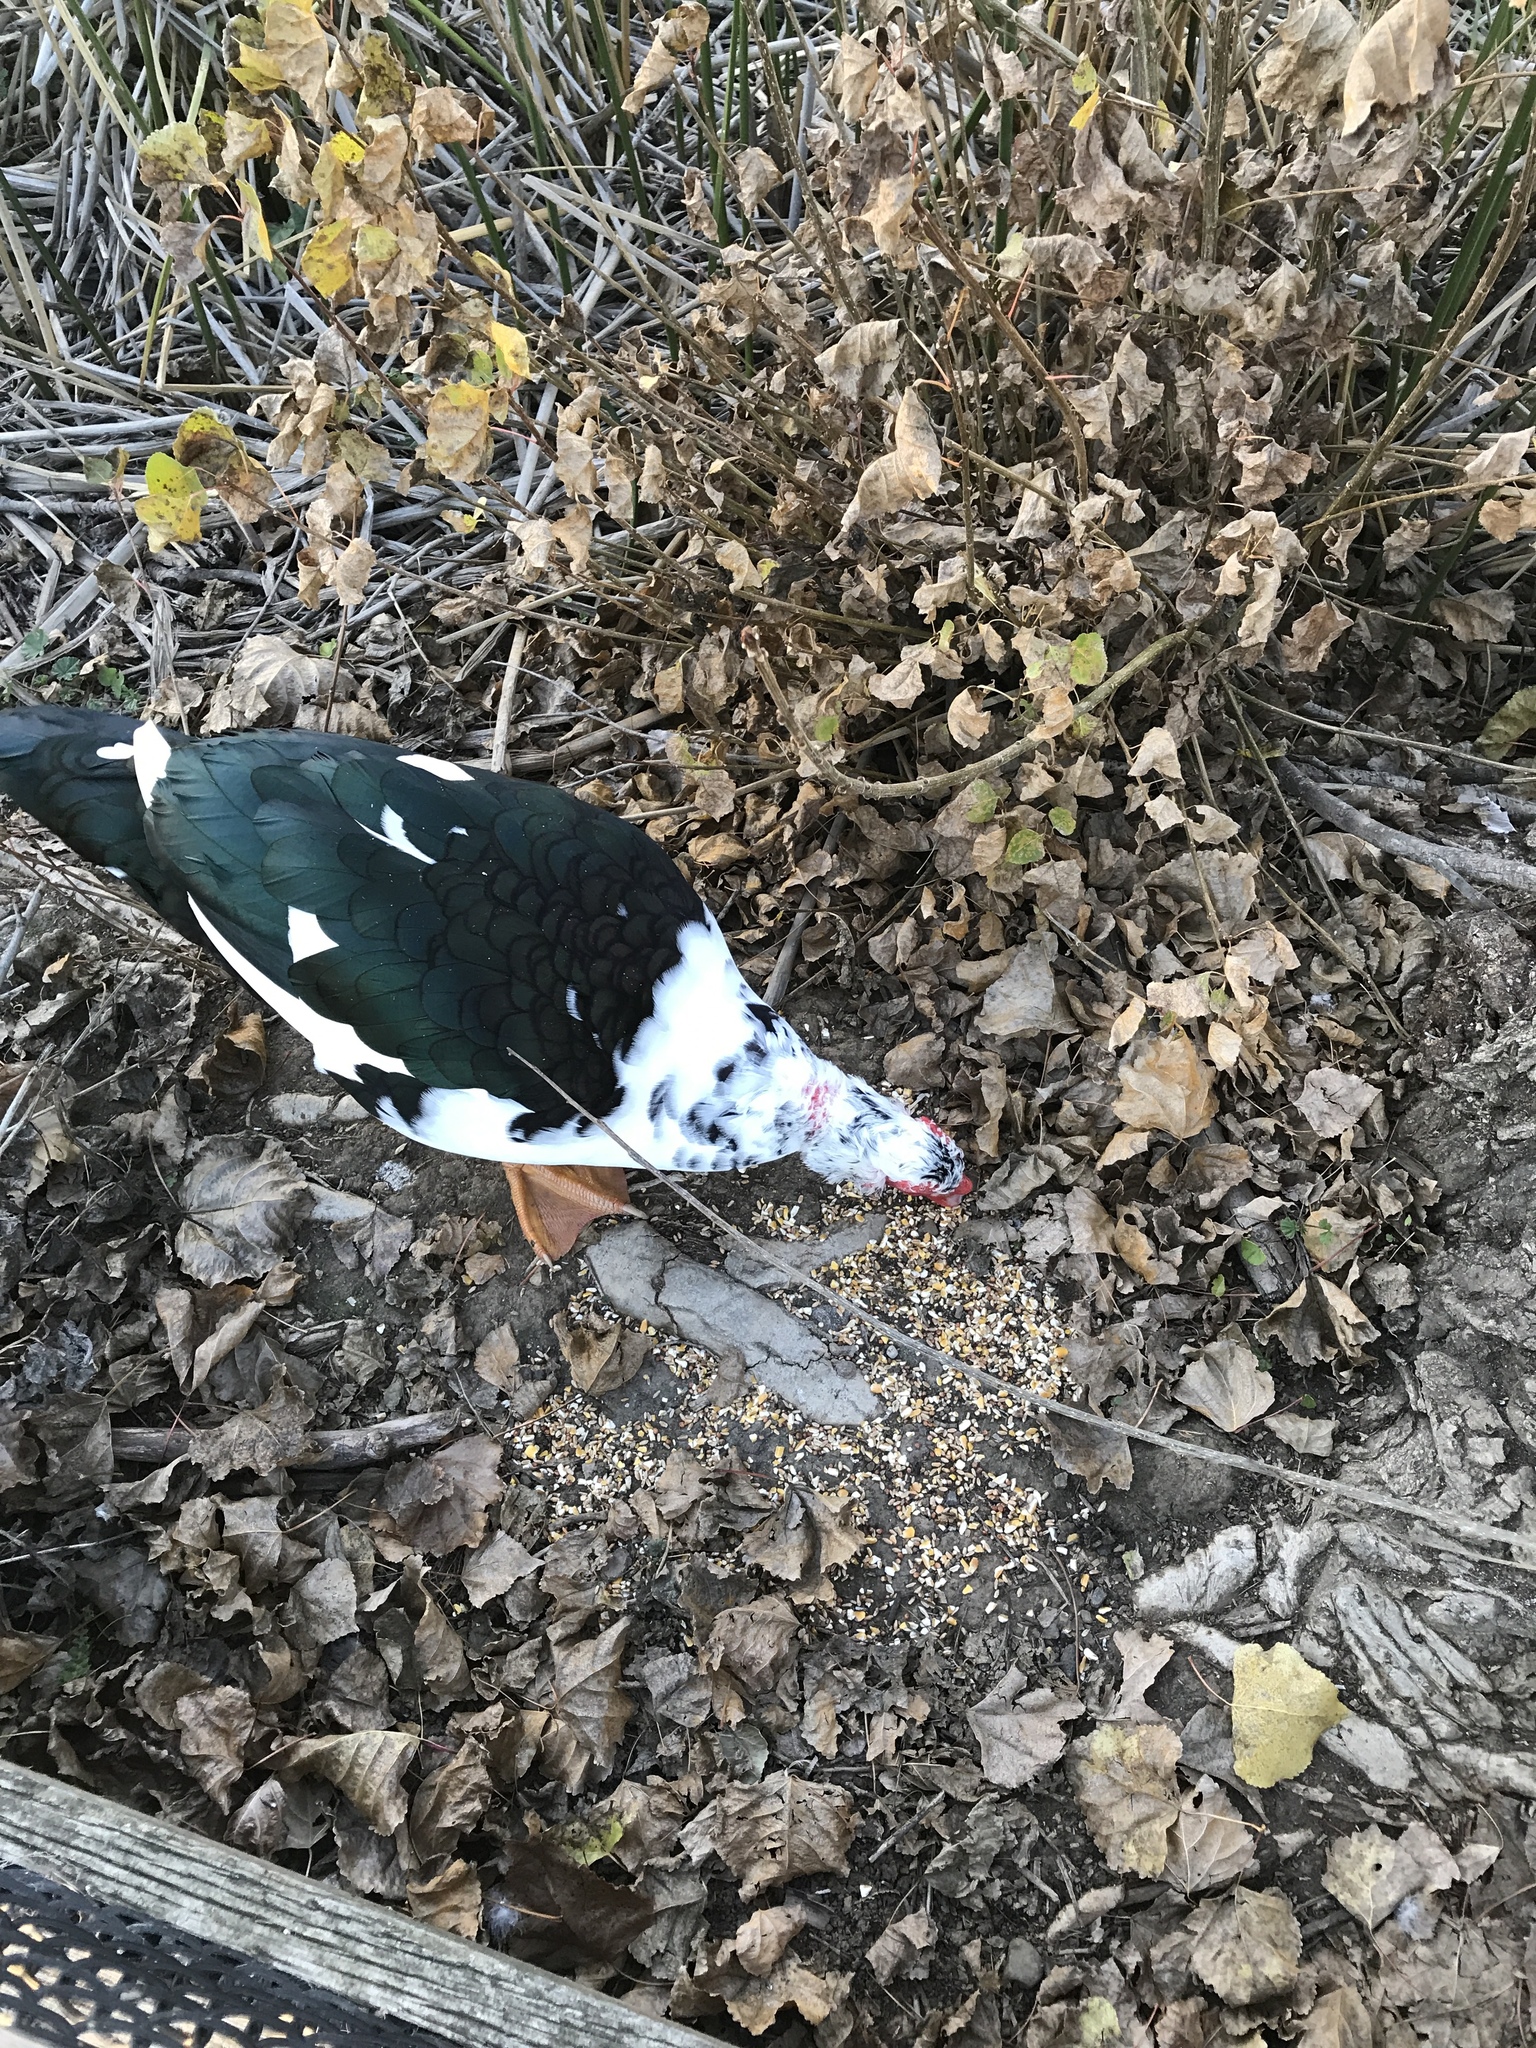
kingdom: Animalia
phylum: Chordata
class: Aves
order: Anseriformes
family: Anatidae
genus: Cairina
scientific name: Cairina moschata
